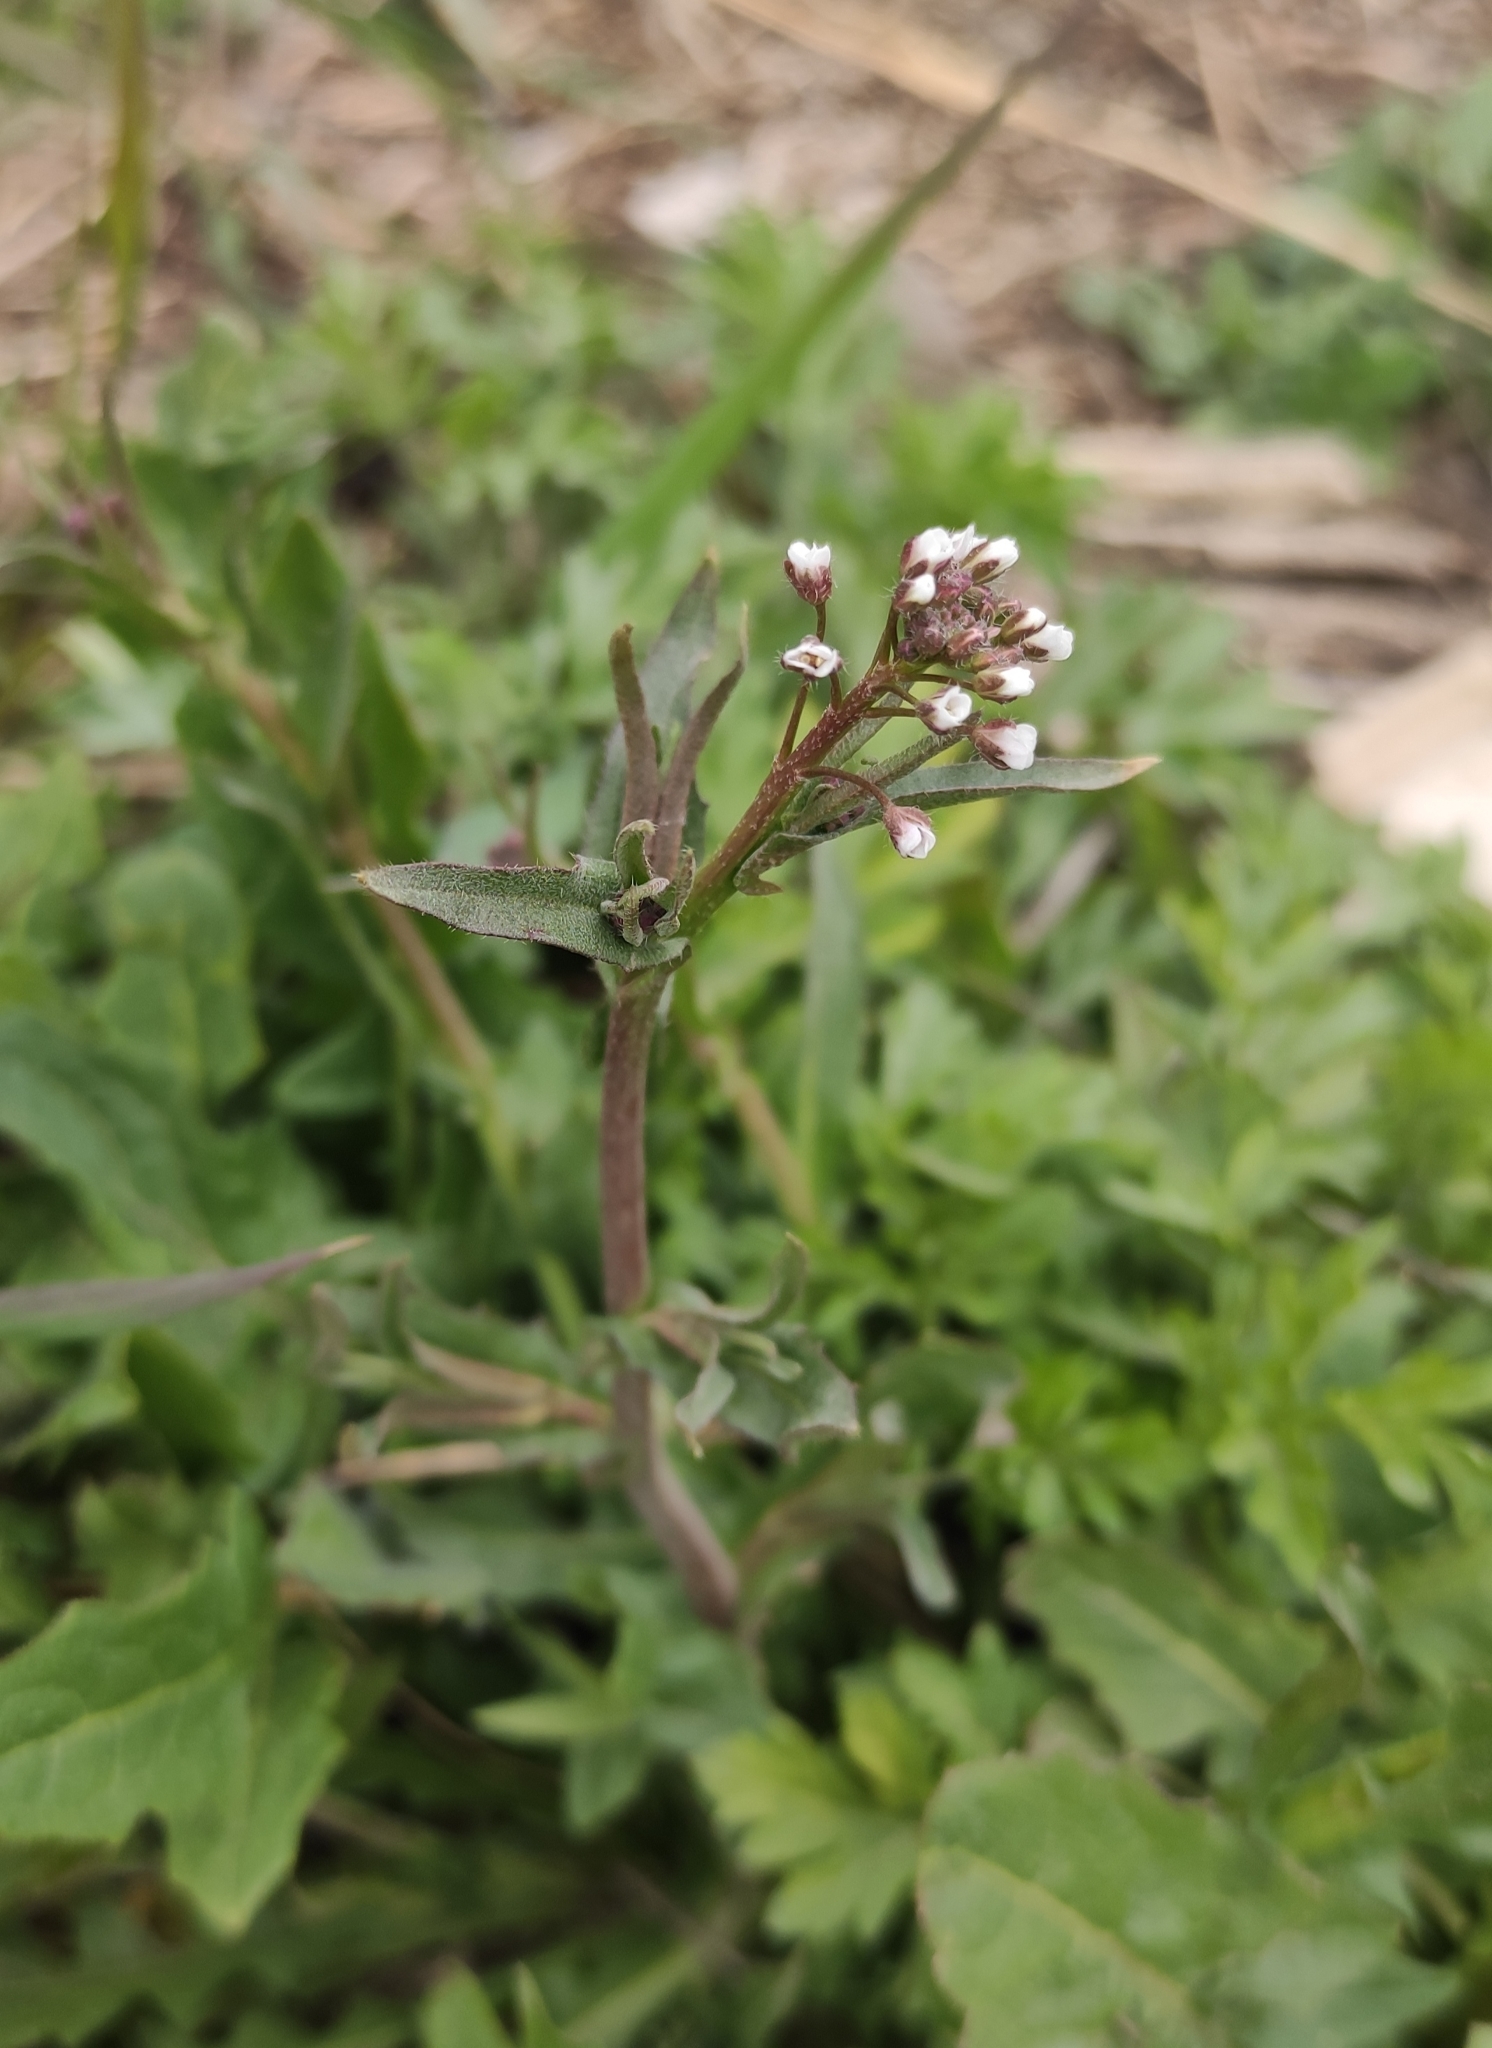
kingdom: Plantae
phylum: Tracheophyta
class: Magnoliopsida
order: Brassicales
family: Brassicaceae
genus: Capsella
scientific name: Capsella bursa-pastoris
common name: Shepherd's purse
